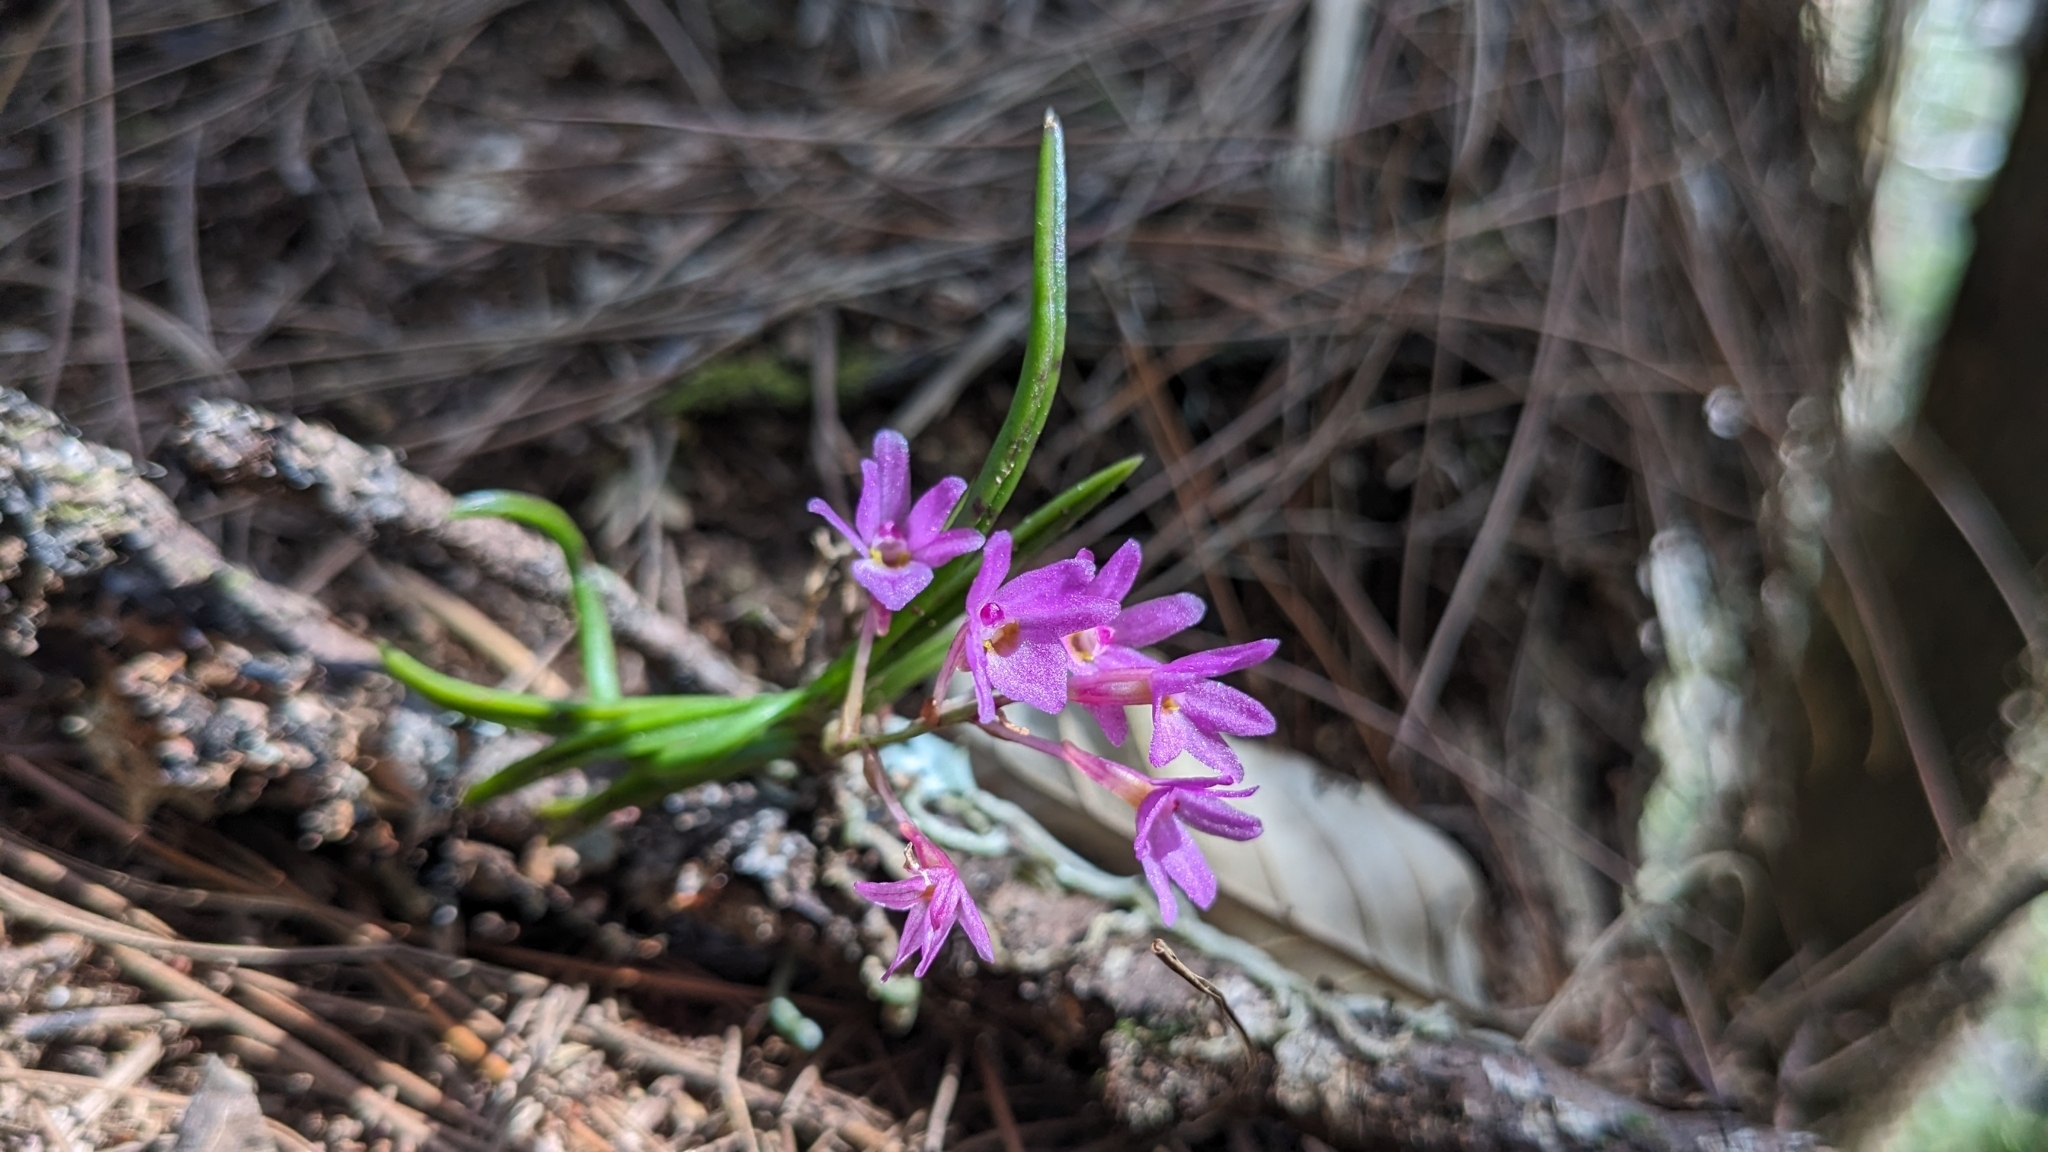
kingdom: Plantae
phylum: Tracheophyta
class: Liliopsida
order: Asparagales
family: Orchidaceae
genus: Holcoglossum
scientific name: Holcoglossum pumilum
